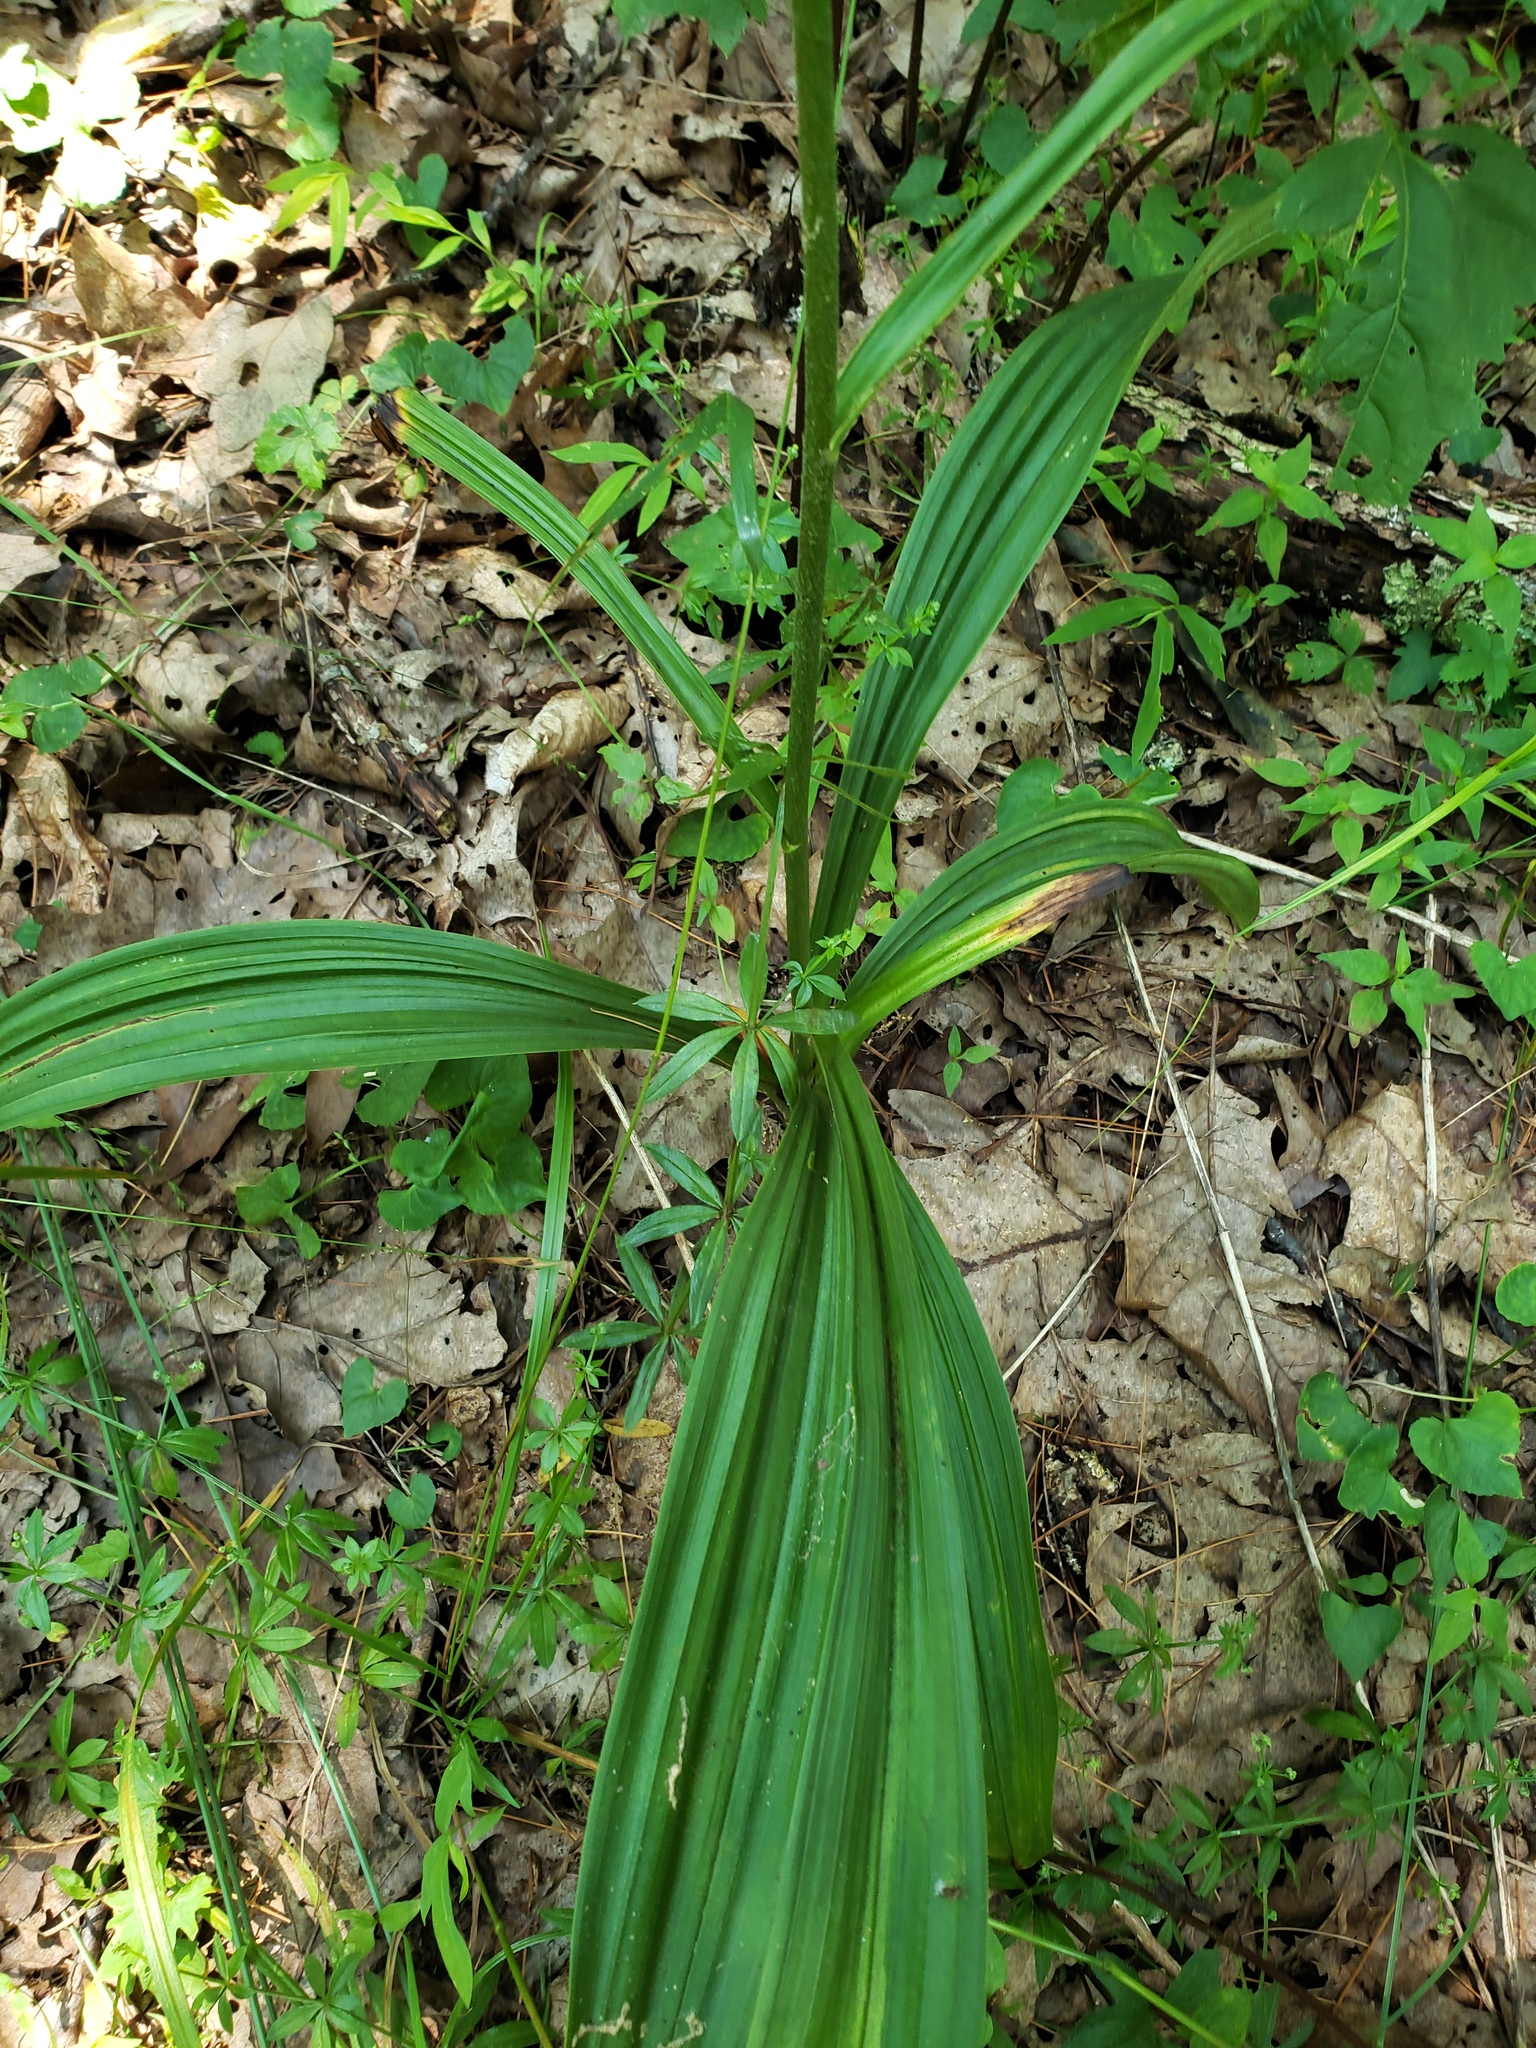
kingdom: Plantae
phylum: Tracheophyta
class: Liliopsida
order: Liliales
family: Melanthiaceae
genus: Veratrum
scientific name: Veratrum hybridum
